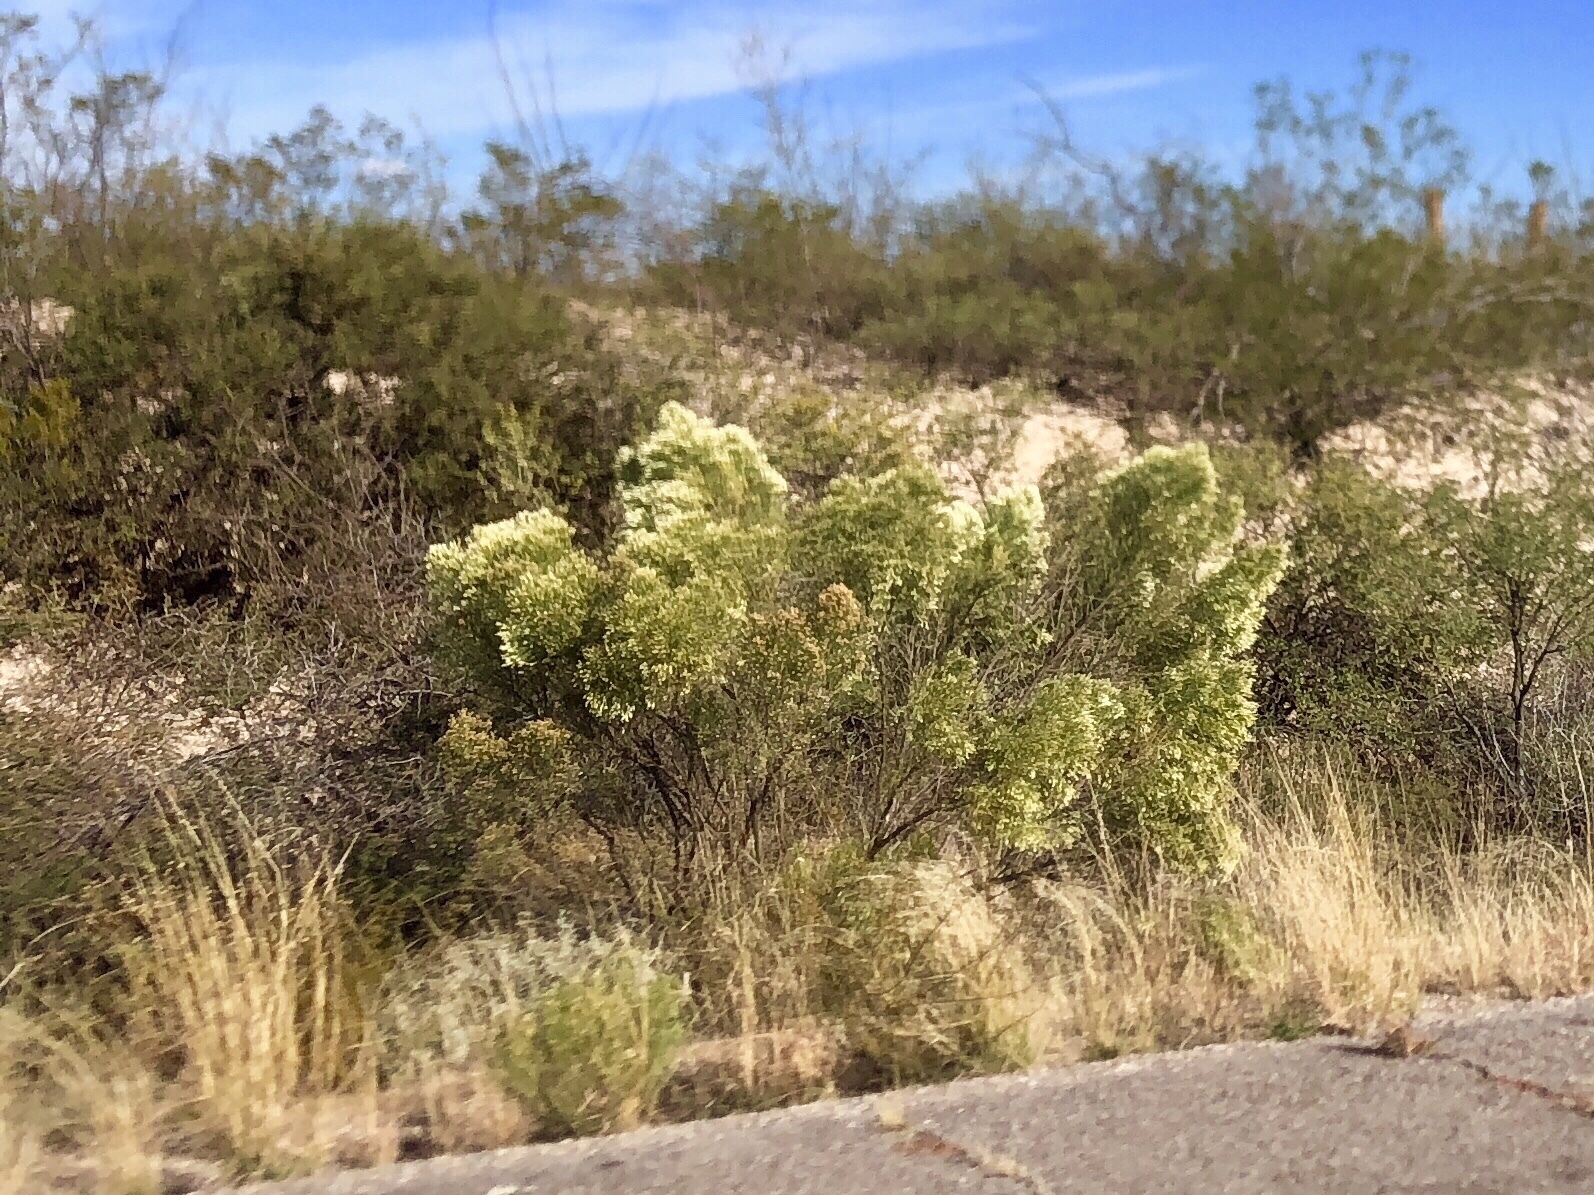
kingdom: Plantae
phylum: Tracheophyta
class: Magnoliopsida
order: Asterales
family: Asteraceae
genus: Baccharis
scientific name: Baccharis sarothroides
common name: Desert-broom
